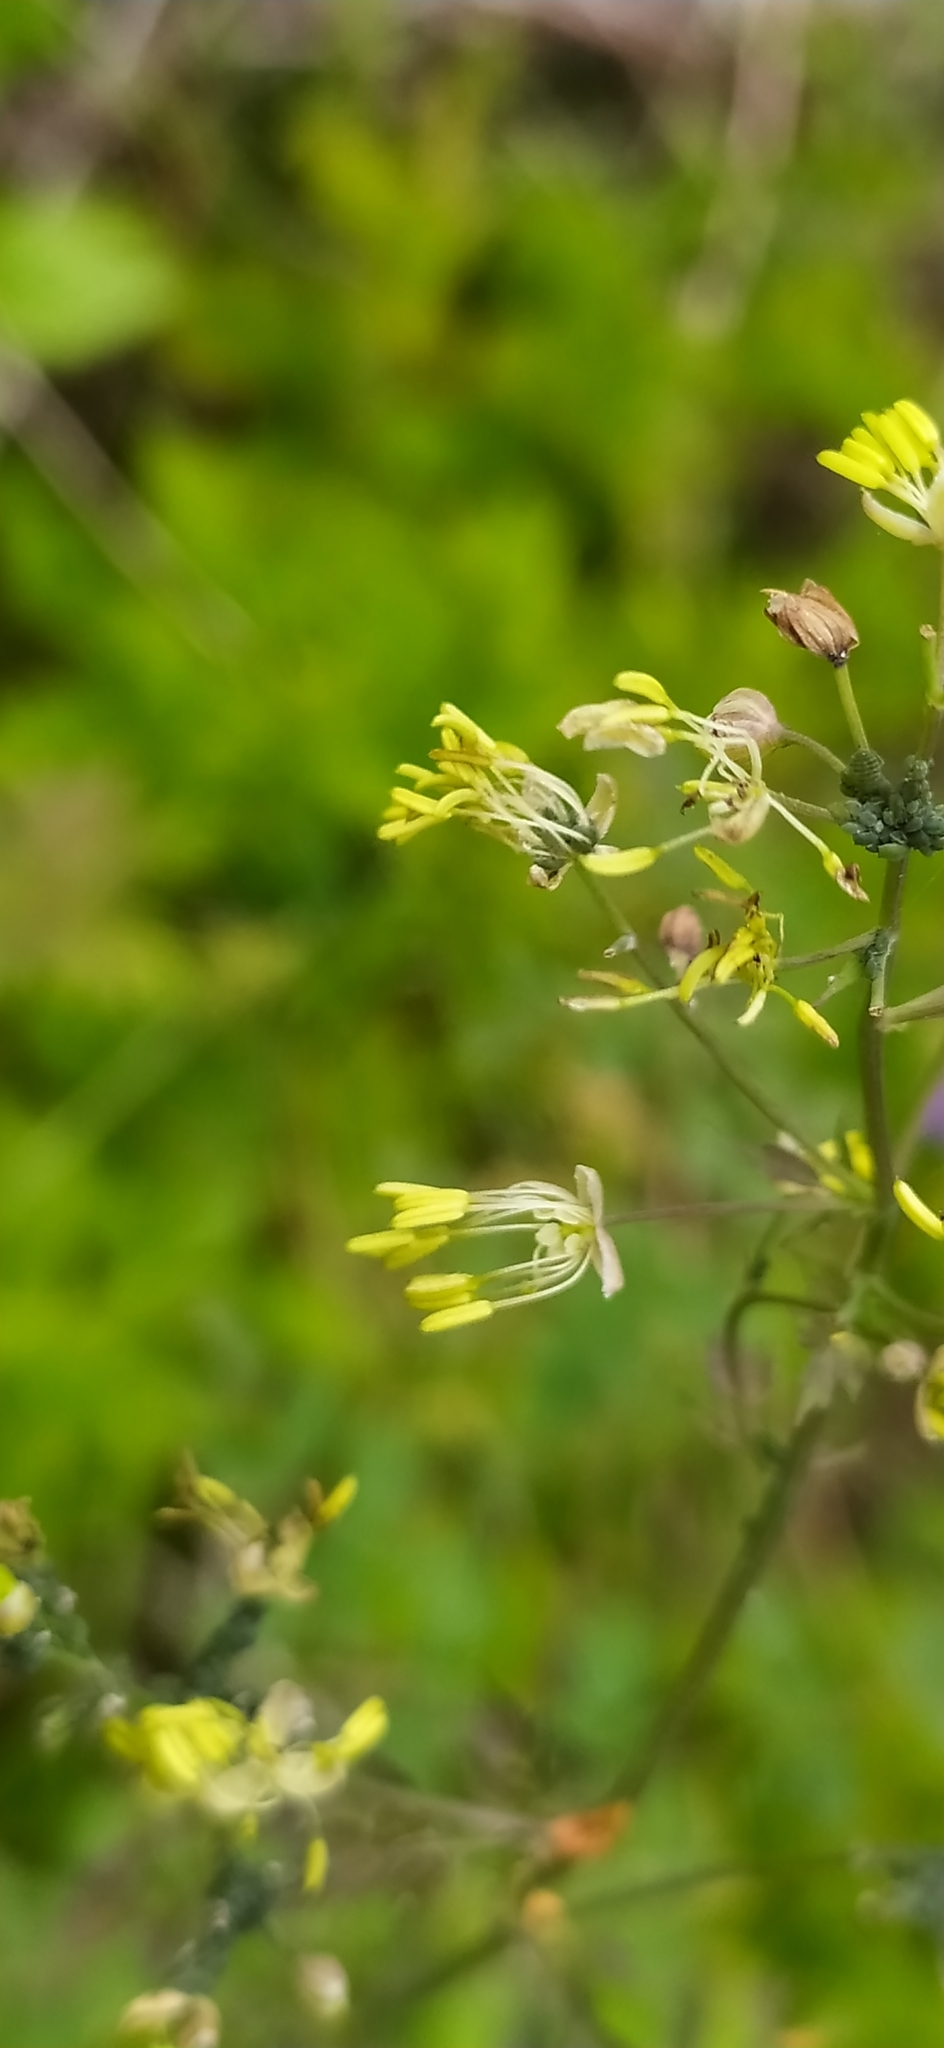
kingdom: Plantae
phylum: Tracheophyta
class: Magnoliopsida
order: Ranunculales
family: Ranunculaceae
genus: Thalictrum
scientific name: Thalictrum minus
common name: Lesser meadow-rue
